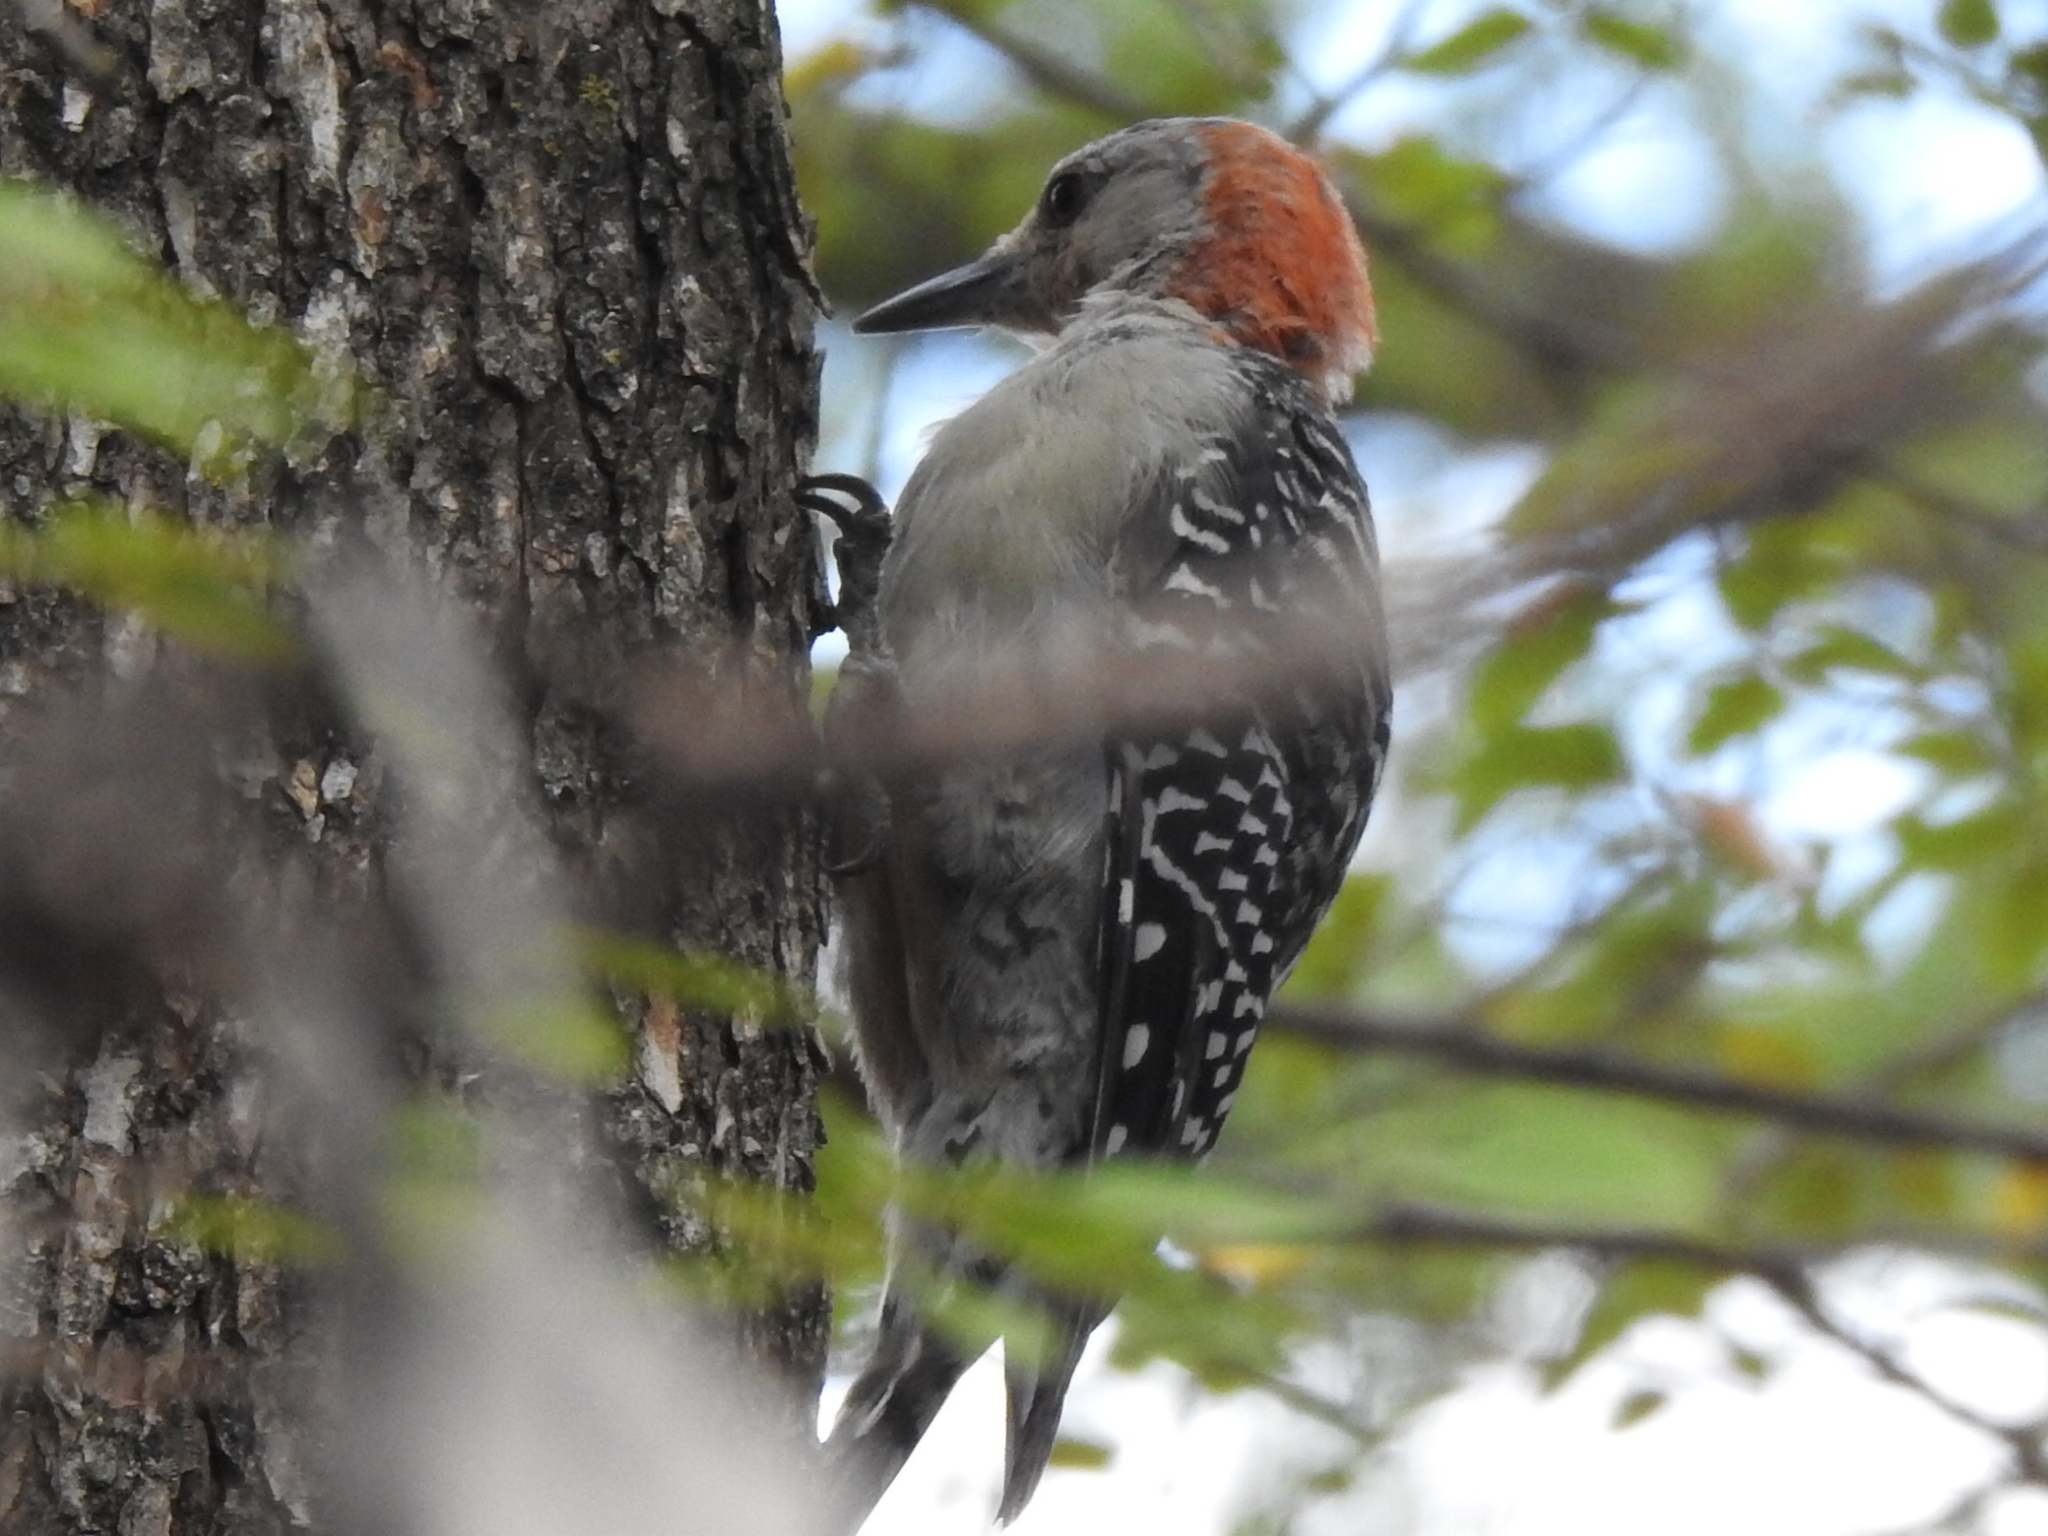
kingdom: Animalia
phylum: Chordata
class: Aves
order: Piciformes
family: Picidae
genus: Melanerpes
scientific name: Melanerpes carolinus
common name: Red-bellied woodpecker
